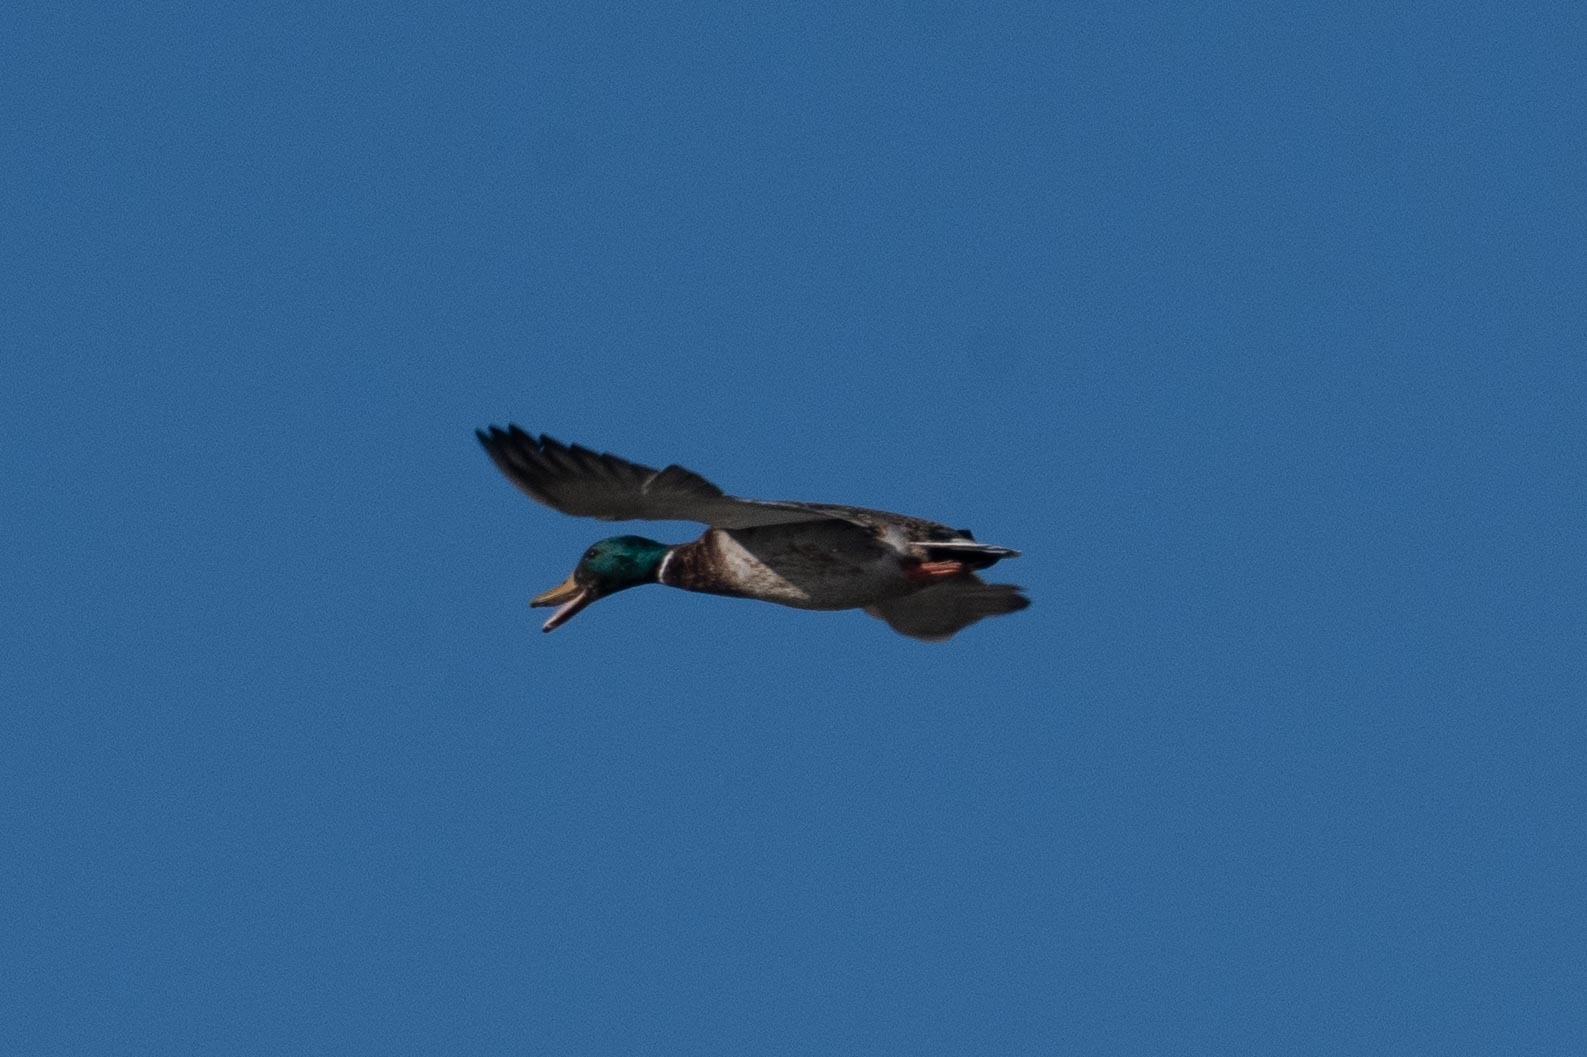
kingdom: Animalia
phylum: Chordata
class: Aves
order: Anseriformes
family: Anatidae
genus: Anas
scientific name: Anas platyrhynchos
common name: Mallard
